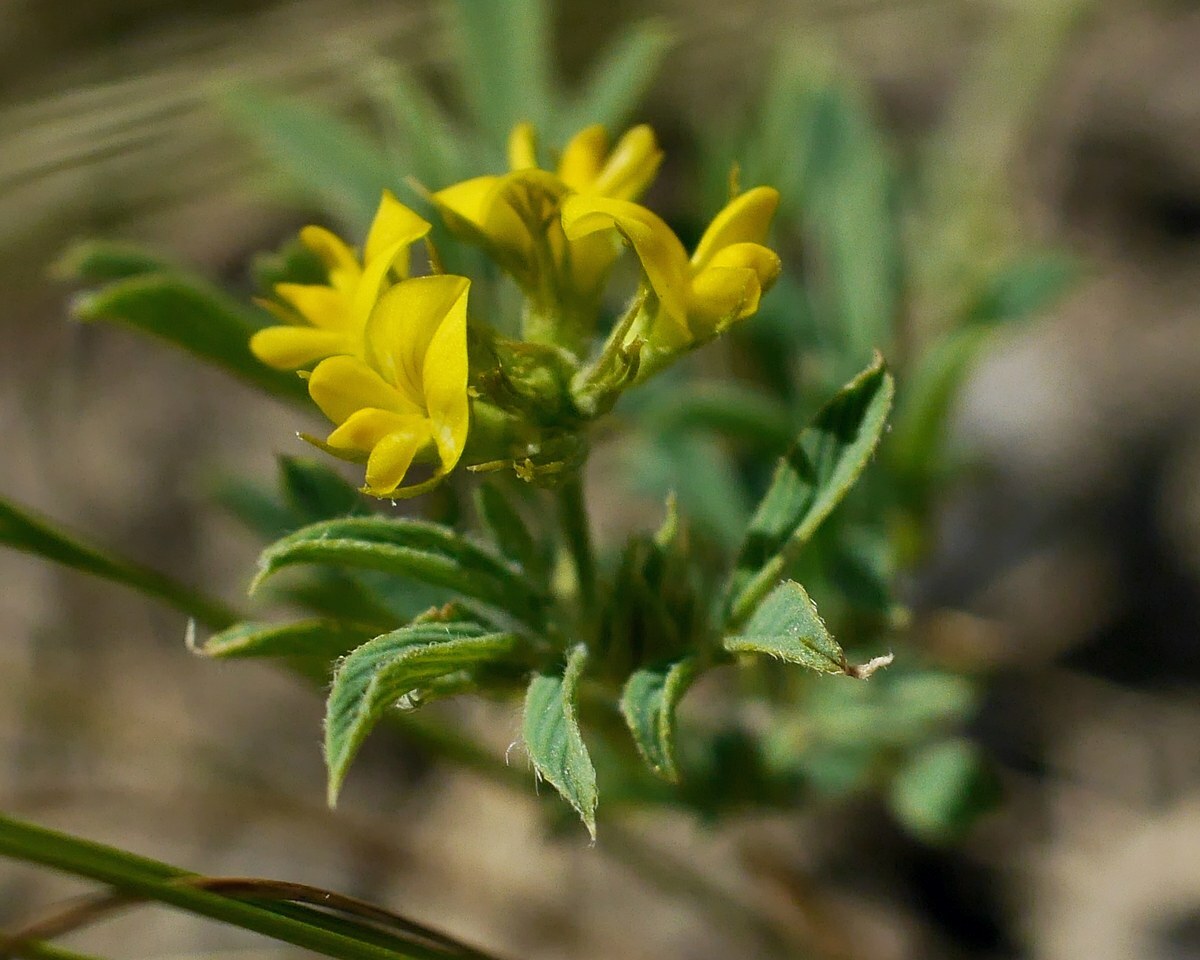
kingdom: Plantae
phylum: Tracheophyta
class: Magnoliopsida
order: Fabales
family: Fabaceae
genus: Medicago
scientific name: Medicago falcata
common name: Sickle medick
